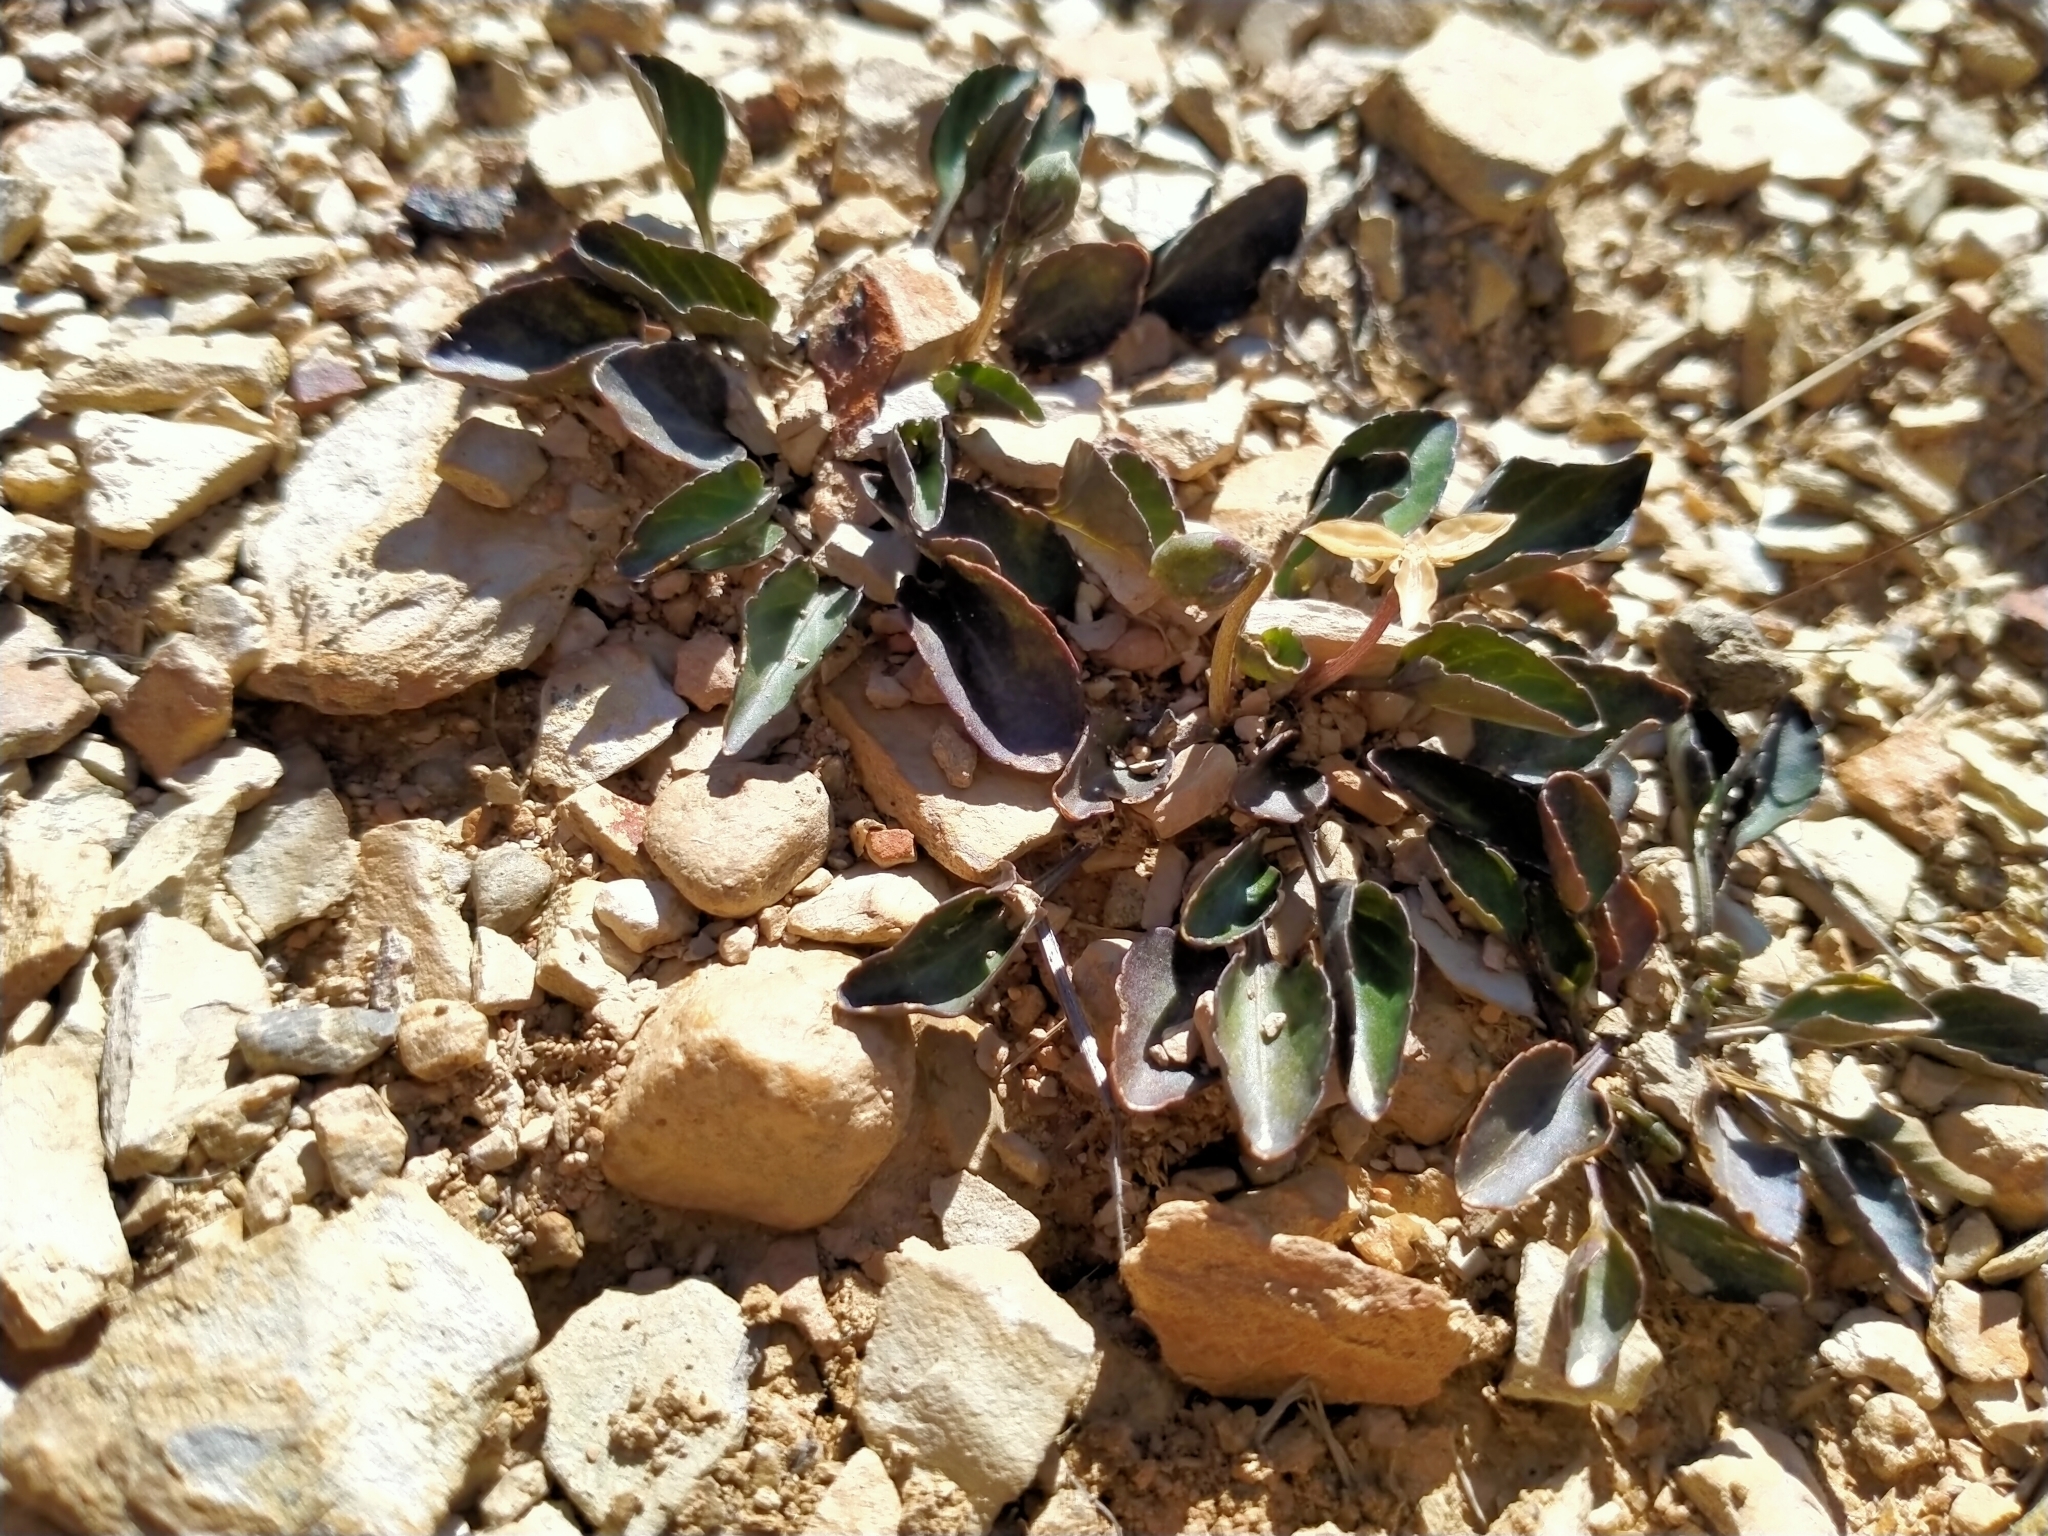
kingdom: Plantae
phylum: Tracheophyta
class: Magnoliopsida
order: Malpighiales
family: Violaceae
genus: Viola
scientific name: Viola cunninghamii
